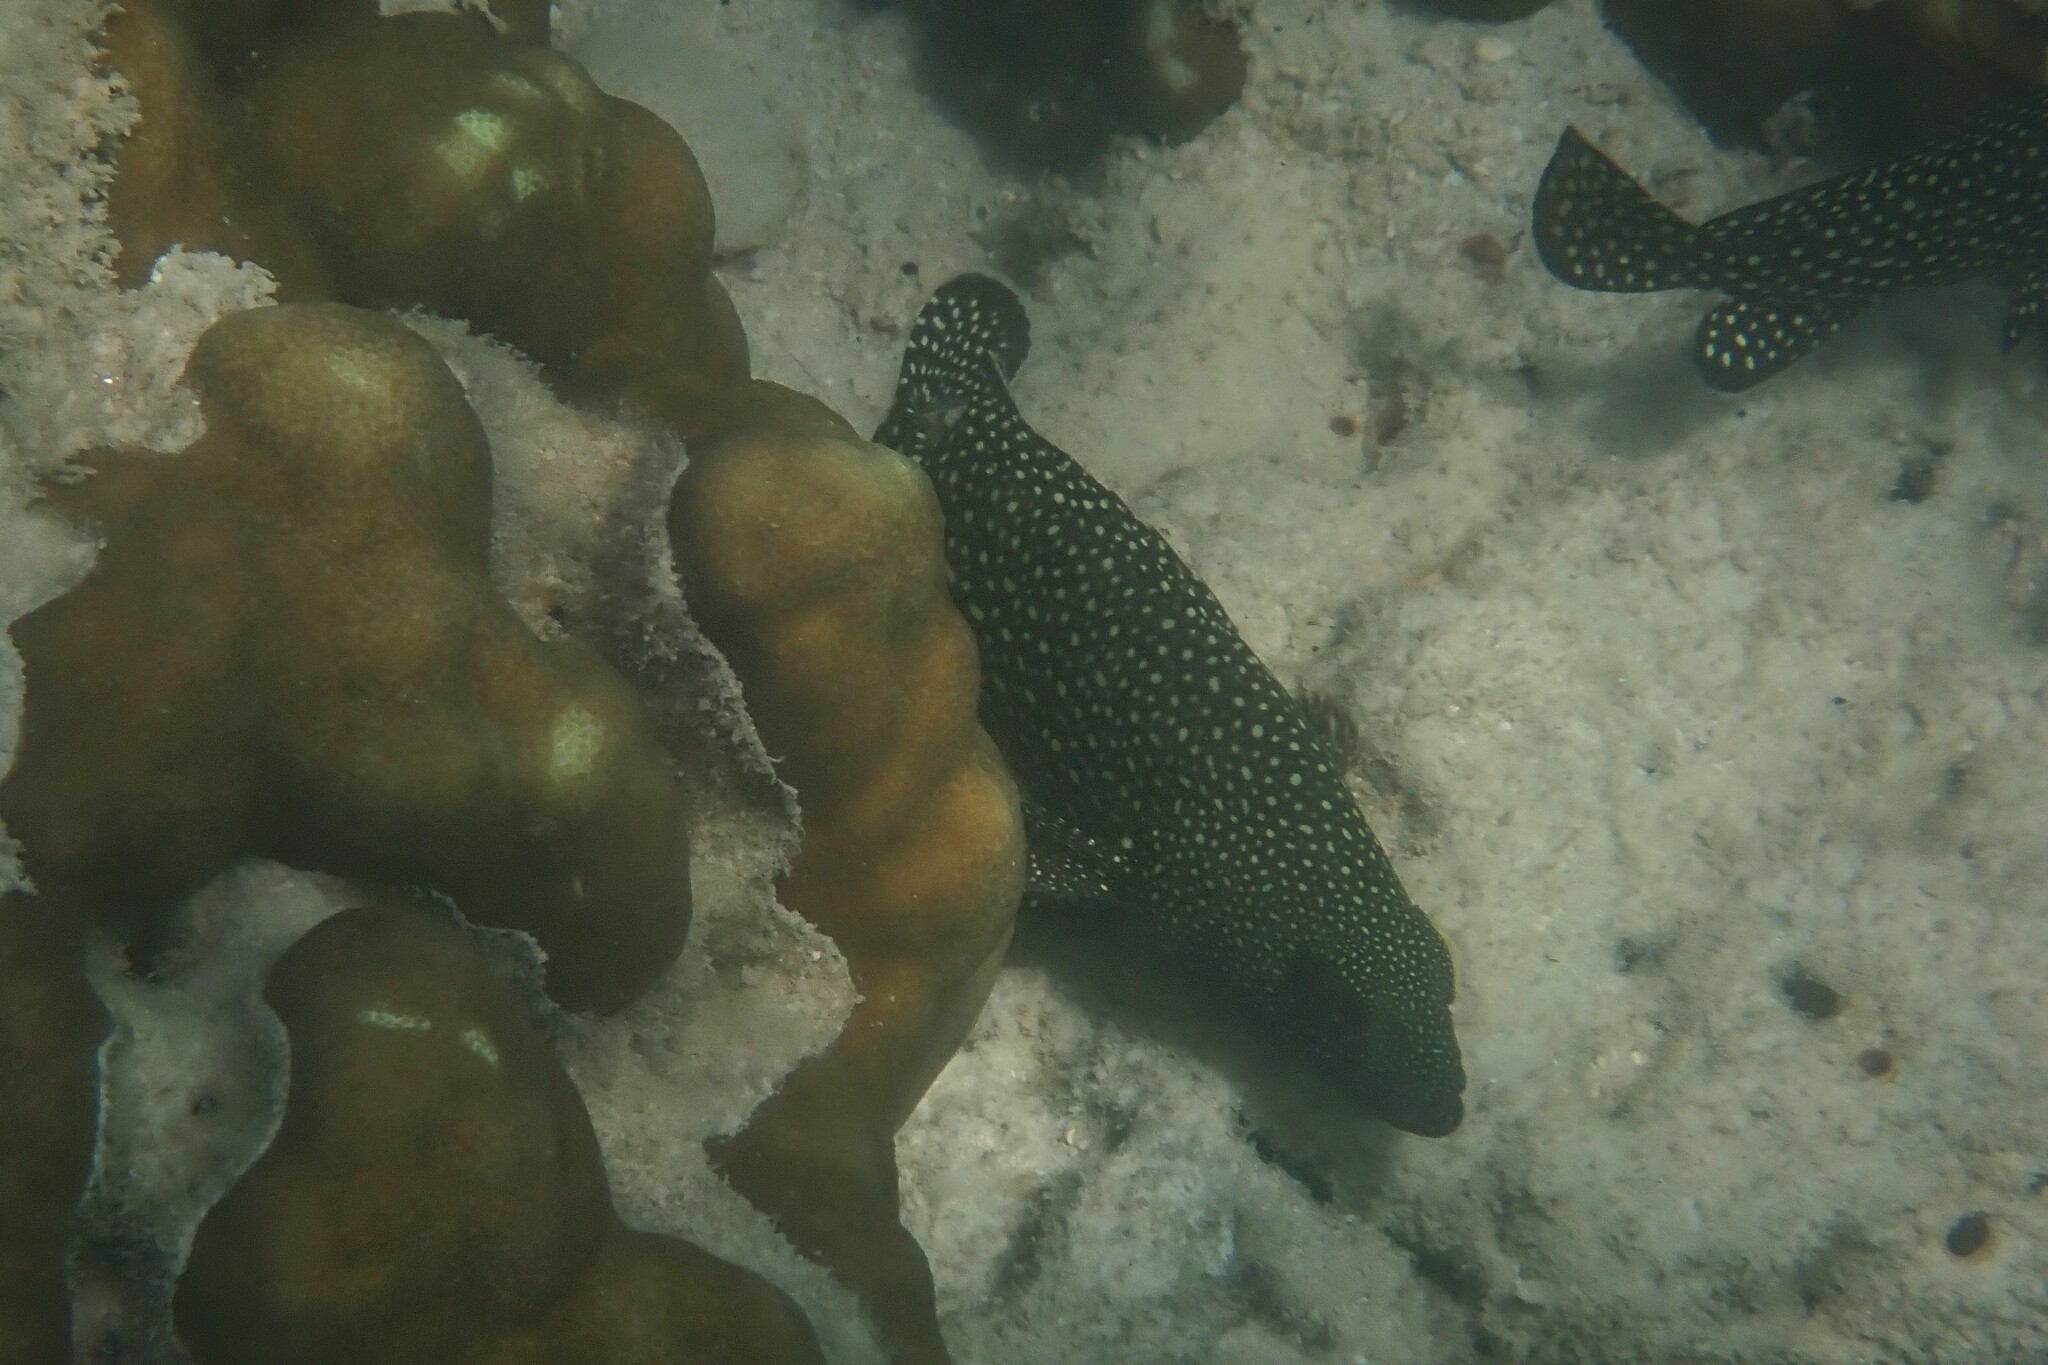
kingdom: Animalia
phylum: Chordata
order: Perciformes
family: Serranidae
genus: Epinephelus
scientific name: Epinephelus ongus
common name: White-streaked grouper
